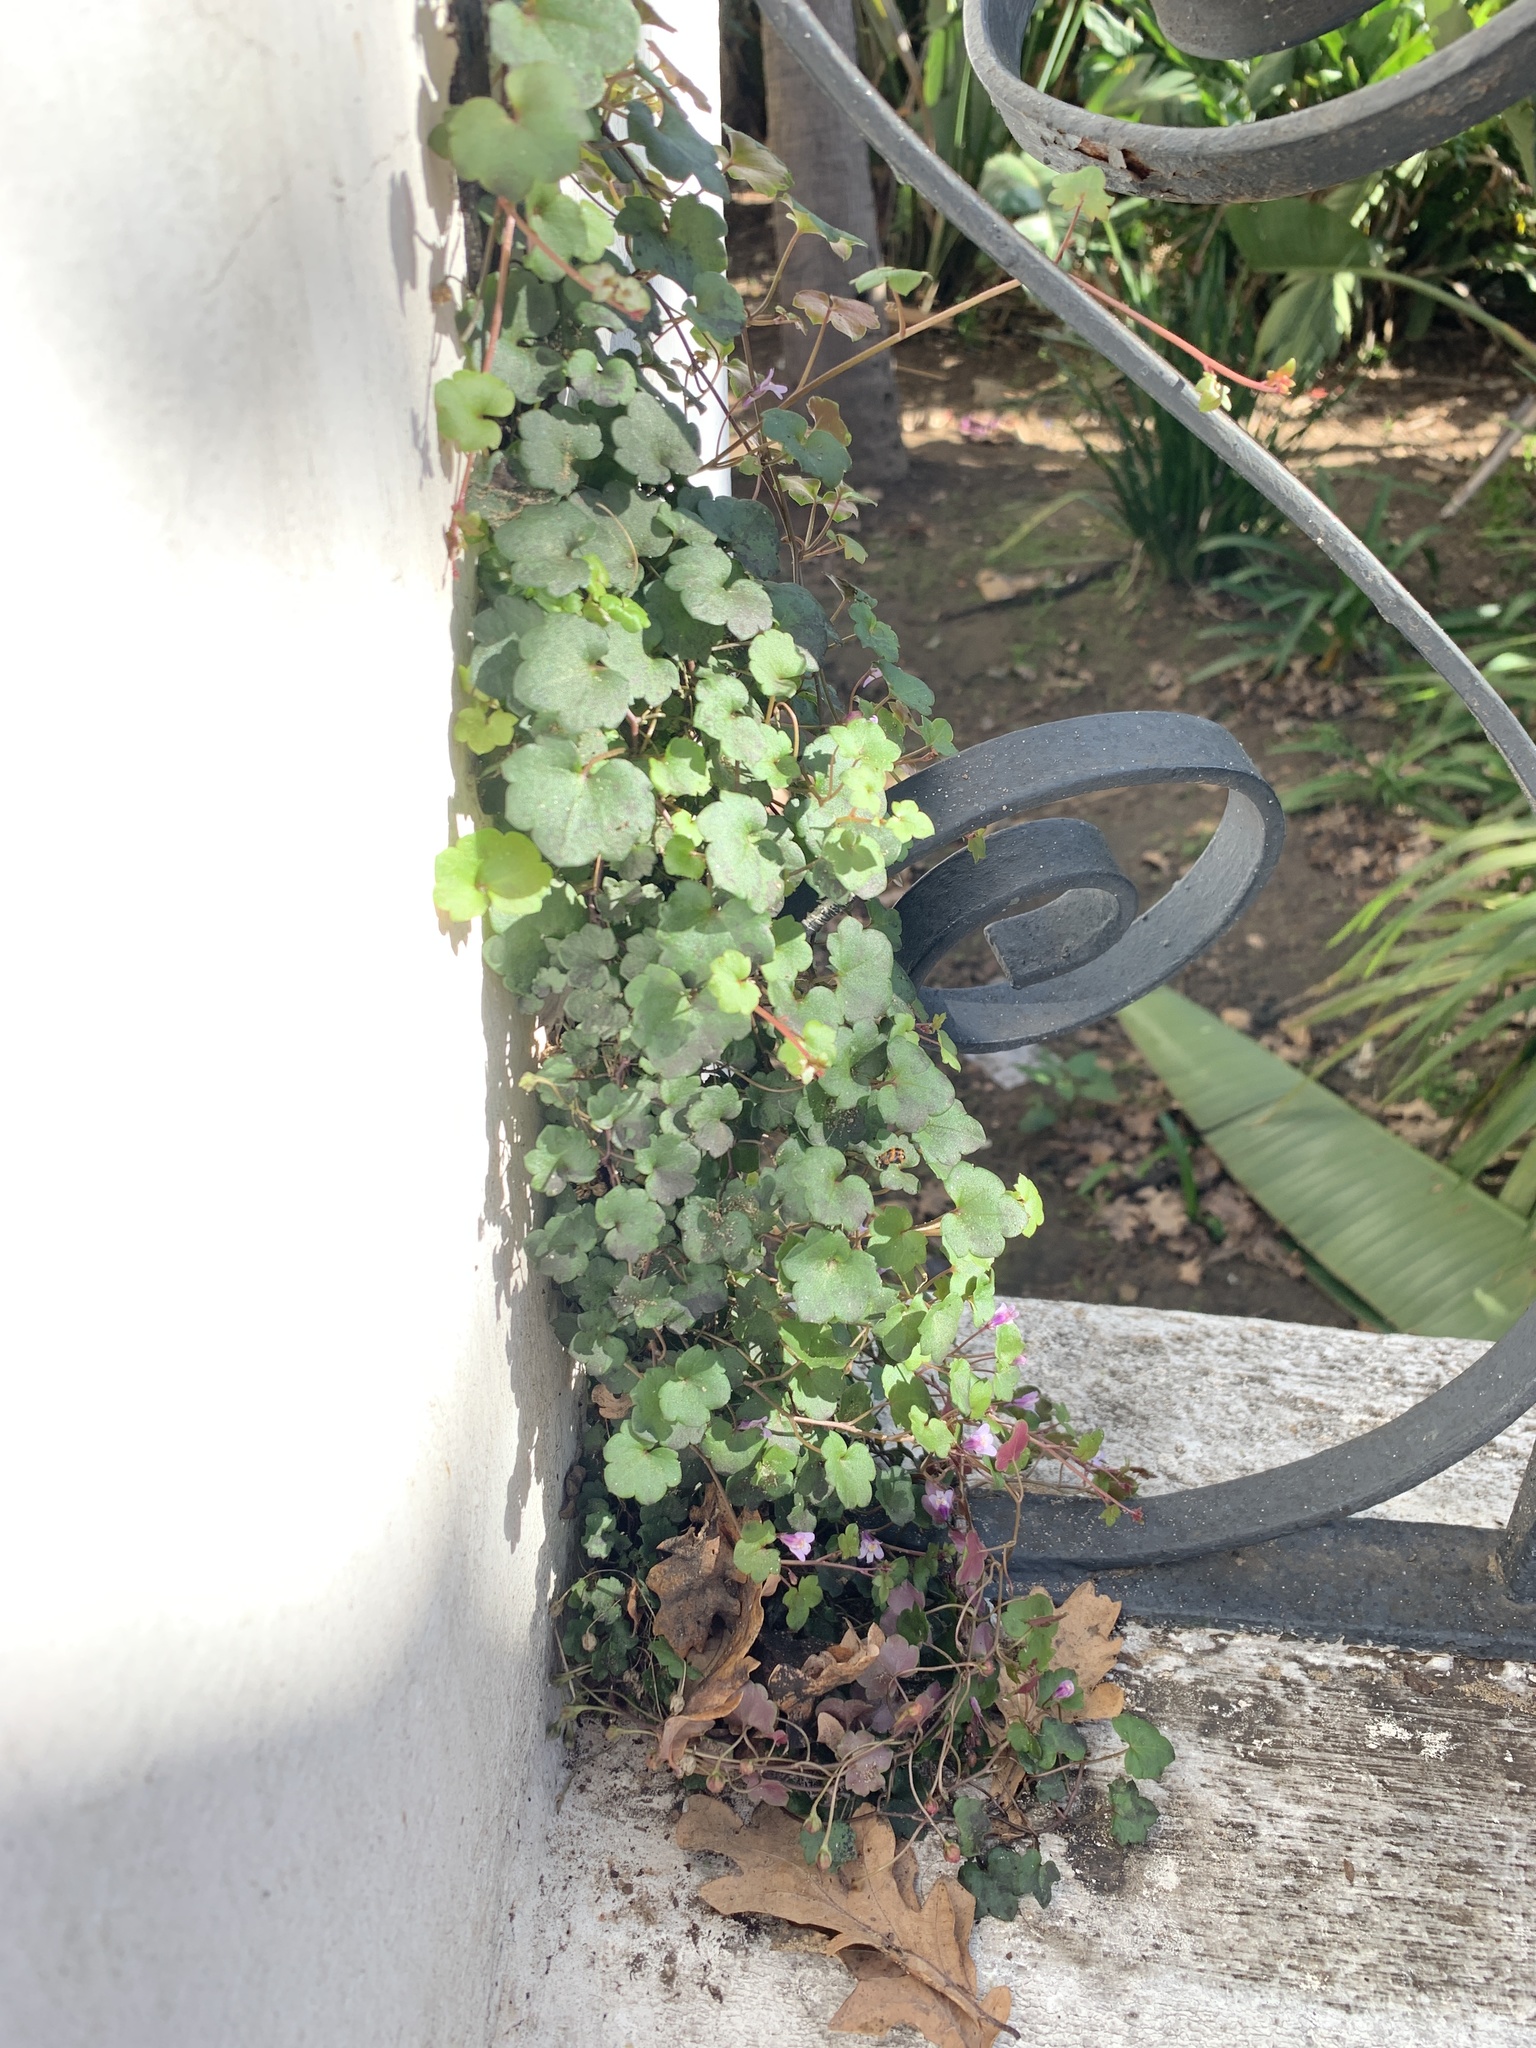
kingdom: Plantae
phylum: Tracheophyta
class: Magnoliopsida
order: Lamiales
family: Plantaginaceae
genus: Cymbalaria
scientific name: Cymbalaria muralis
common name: Ivy-leaved toadflax
